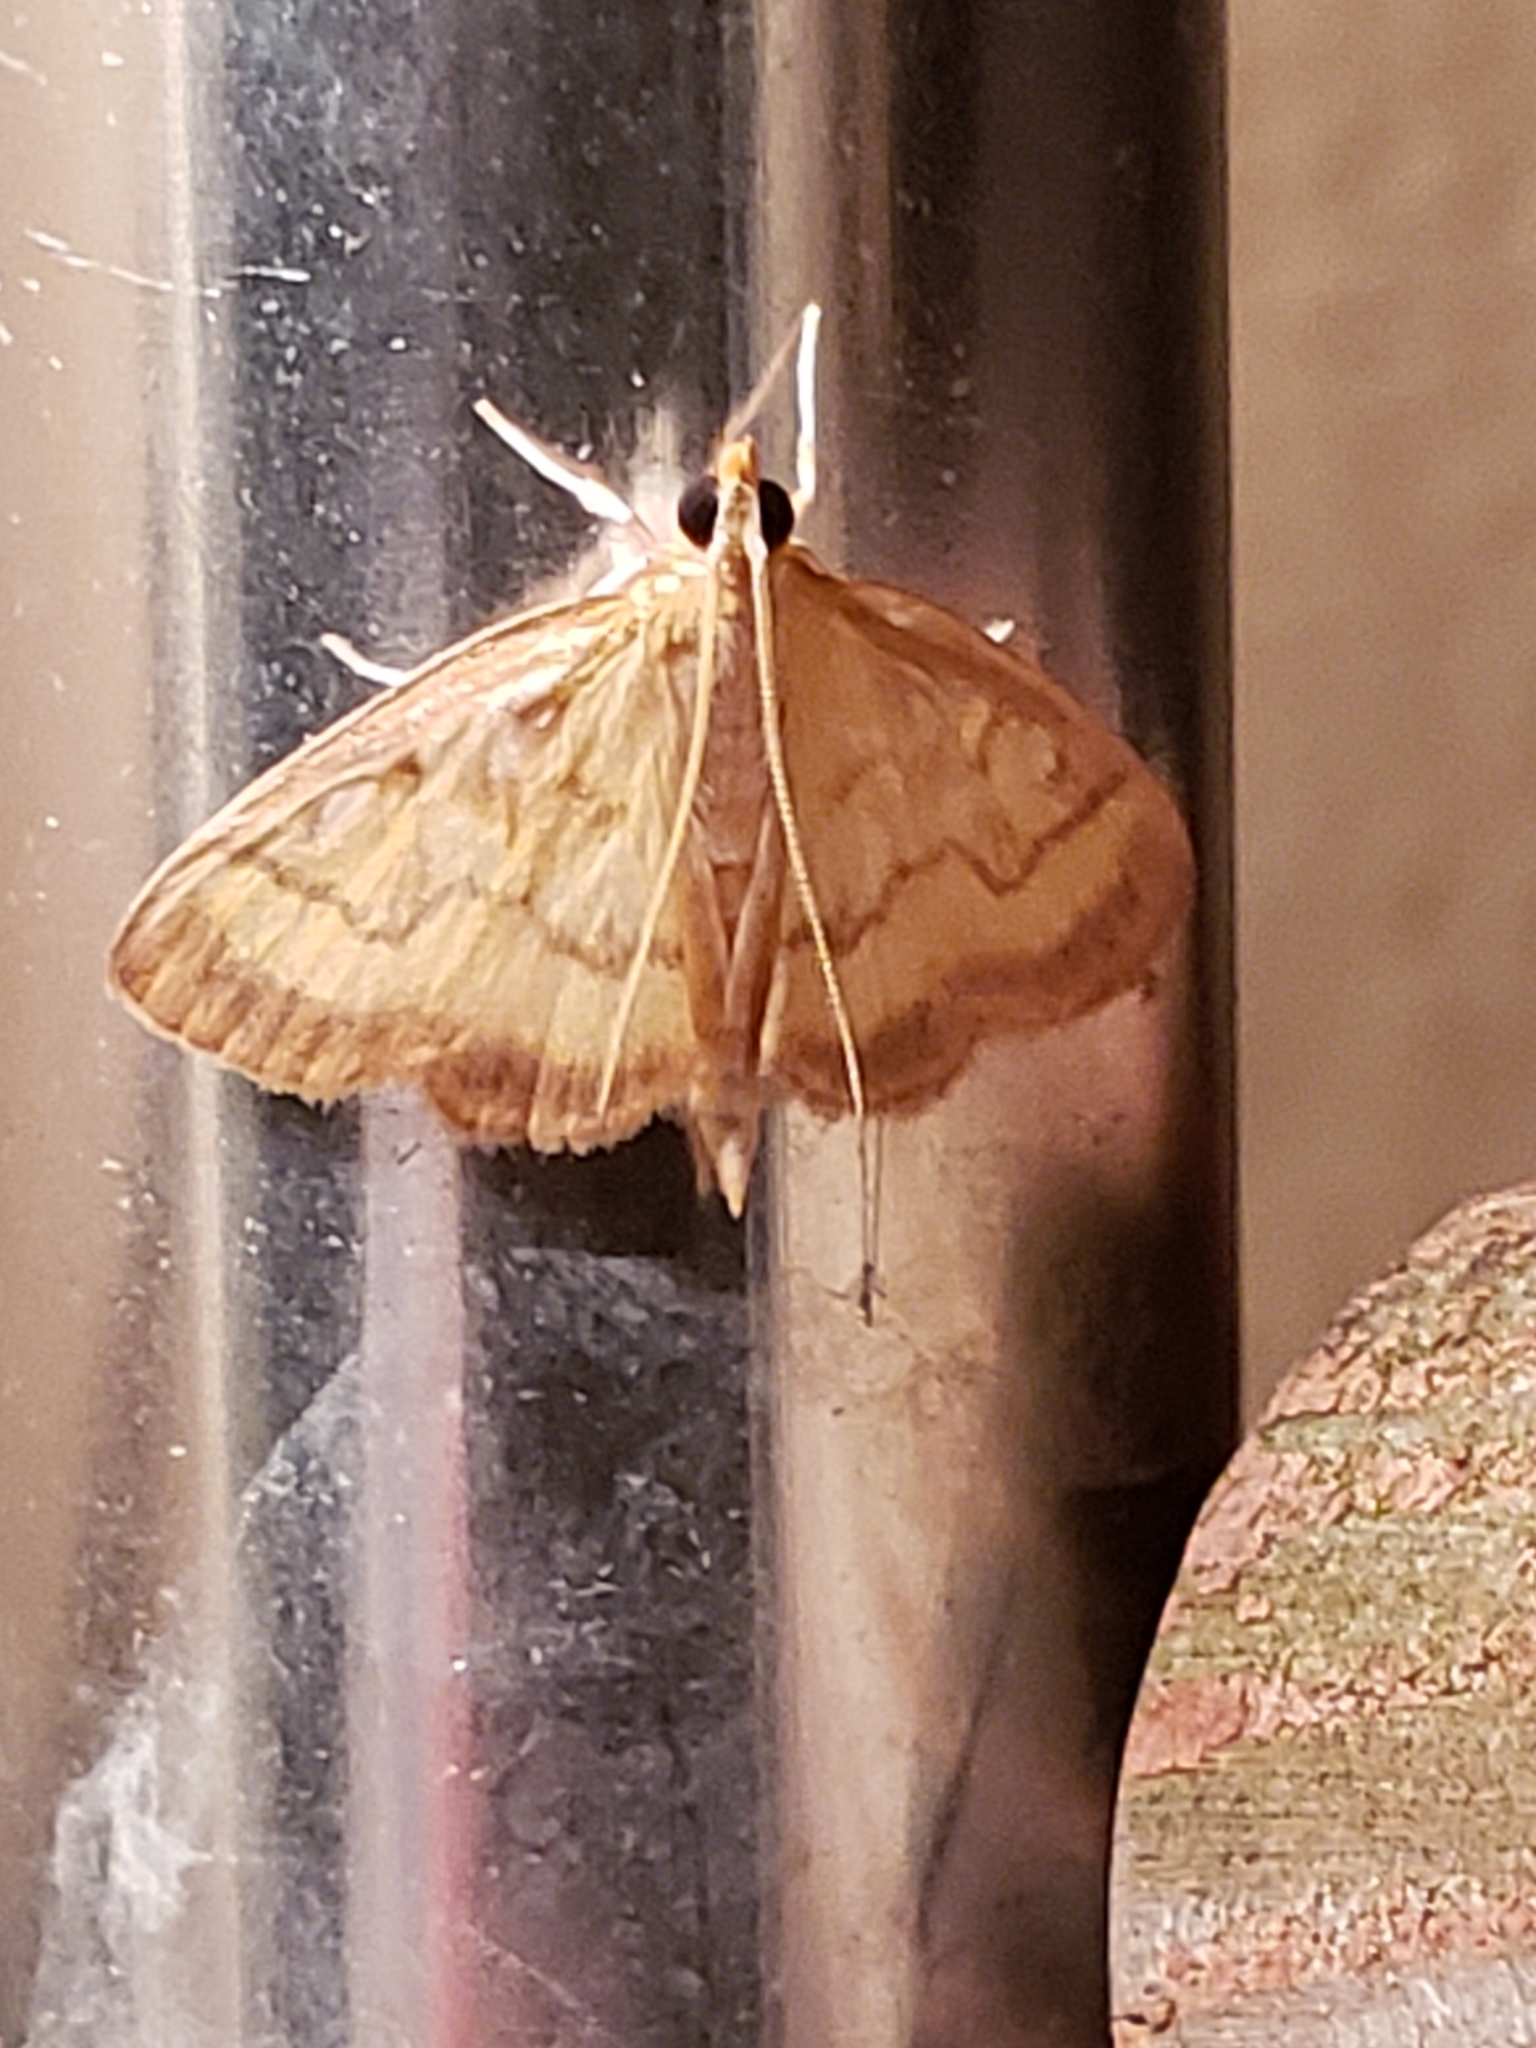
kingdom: Animalia
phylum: Arthropoda
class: Insecta
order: Lepidoptera
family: Crambidae
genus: Crocidophora
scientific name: Crocidophora tuberculalis
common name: Pale-winged crocidiphora moth
